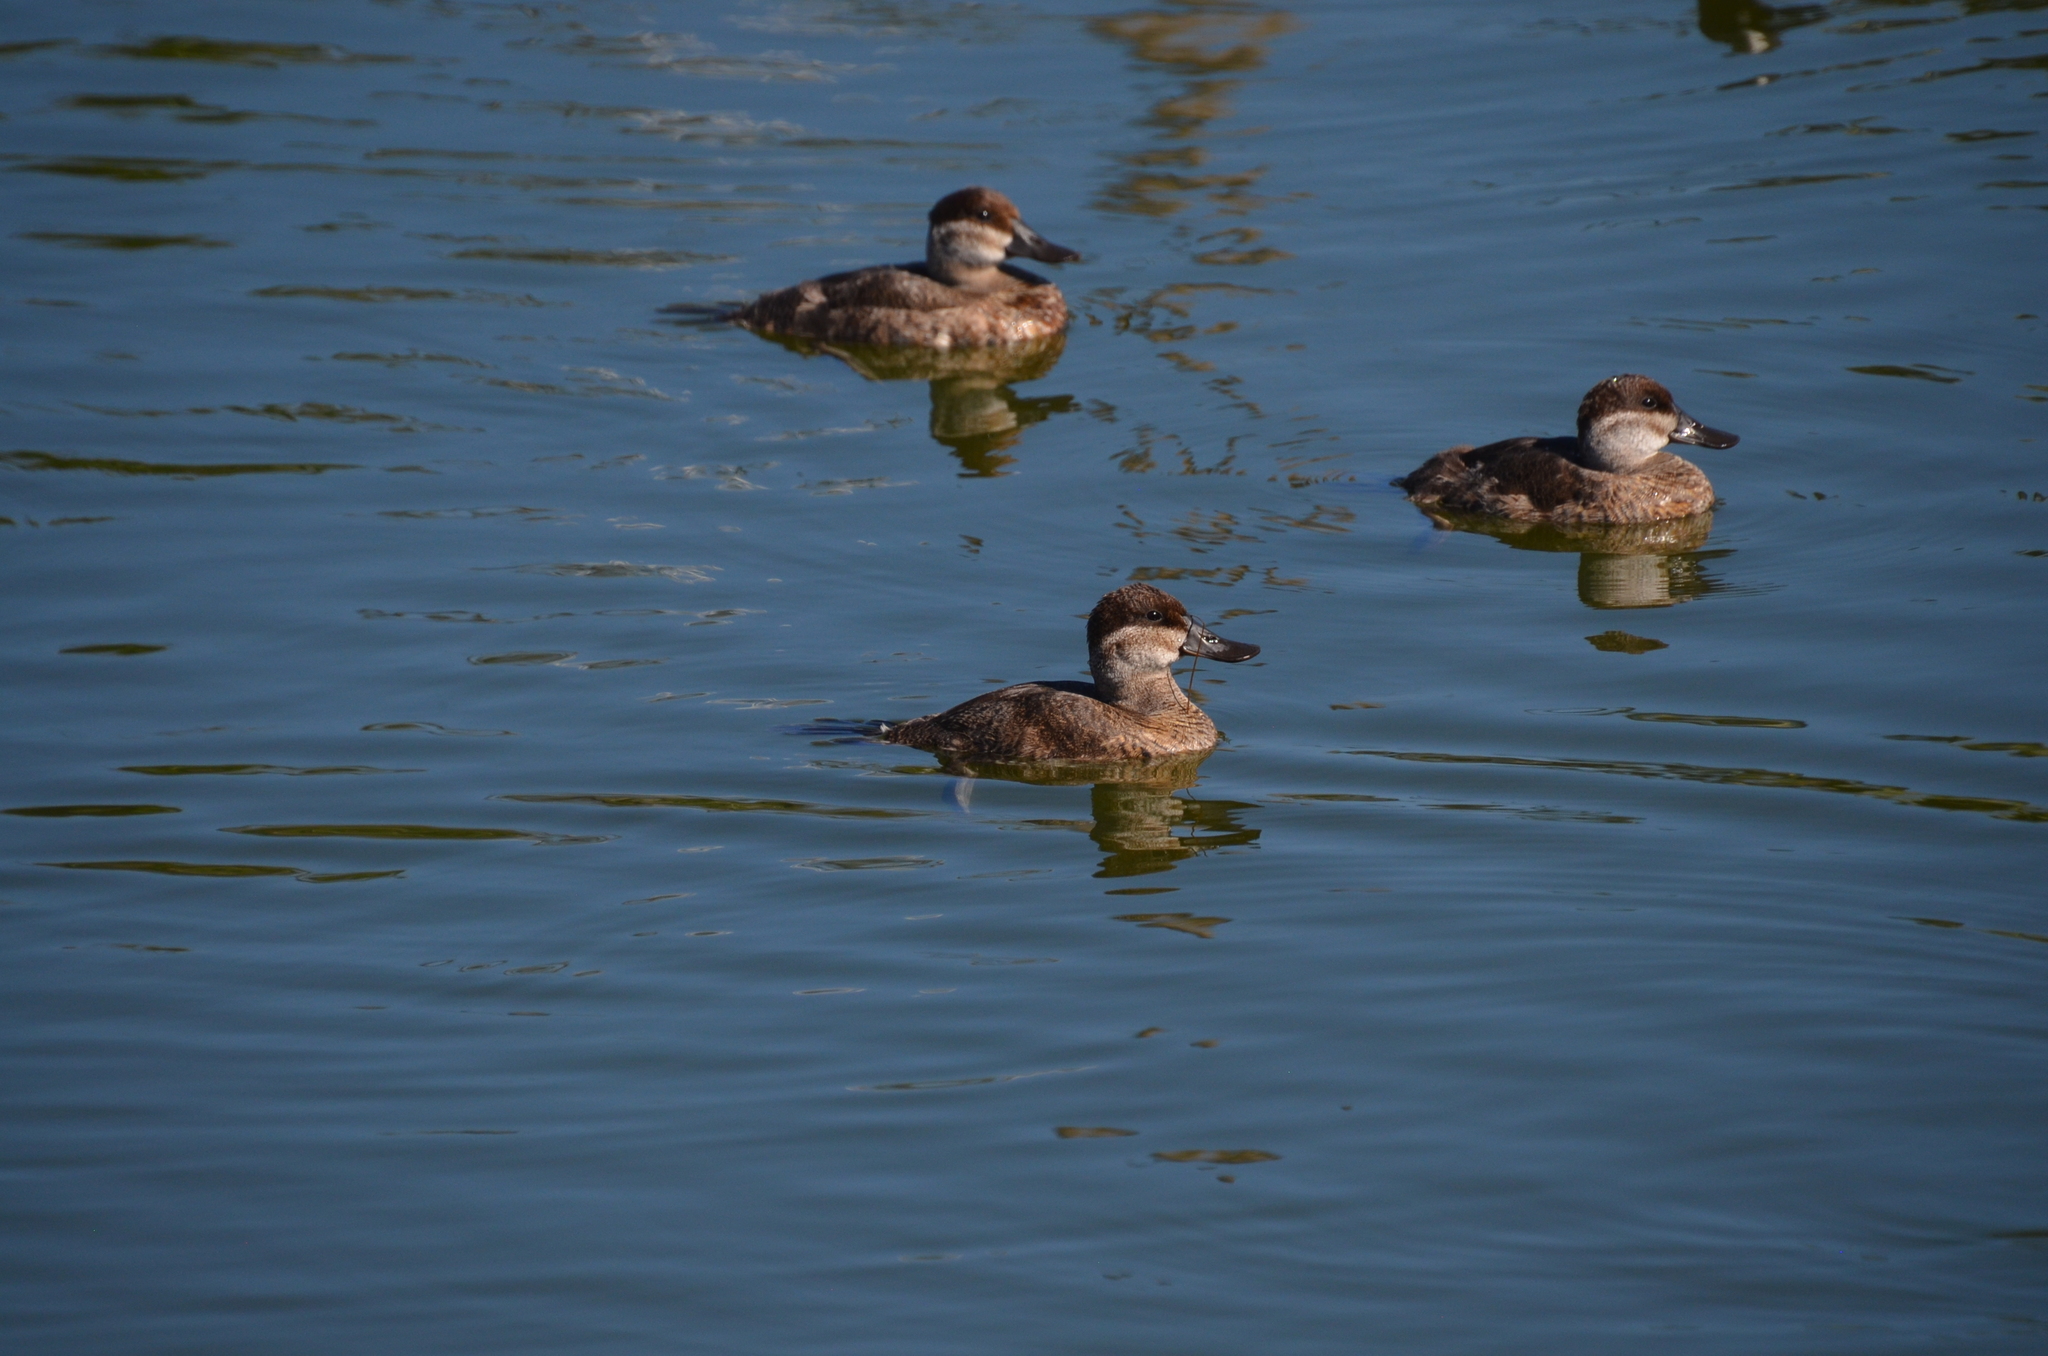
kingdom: Animalia
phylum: Chordata
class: Aves
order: Anseriformes
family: Anatidae
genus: Oxyura
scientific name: Oxyura jamaicensis
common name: Ruddy duck
